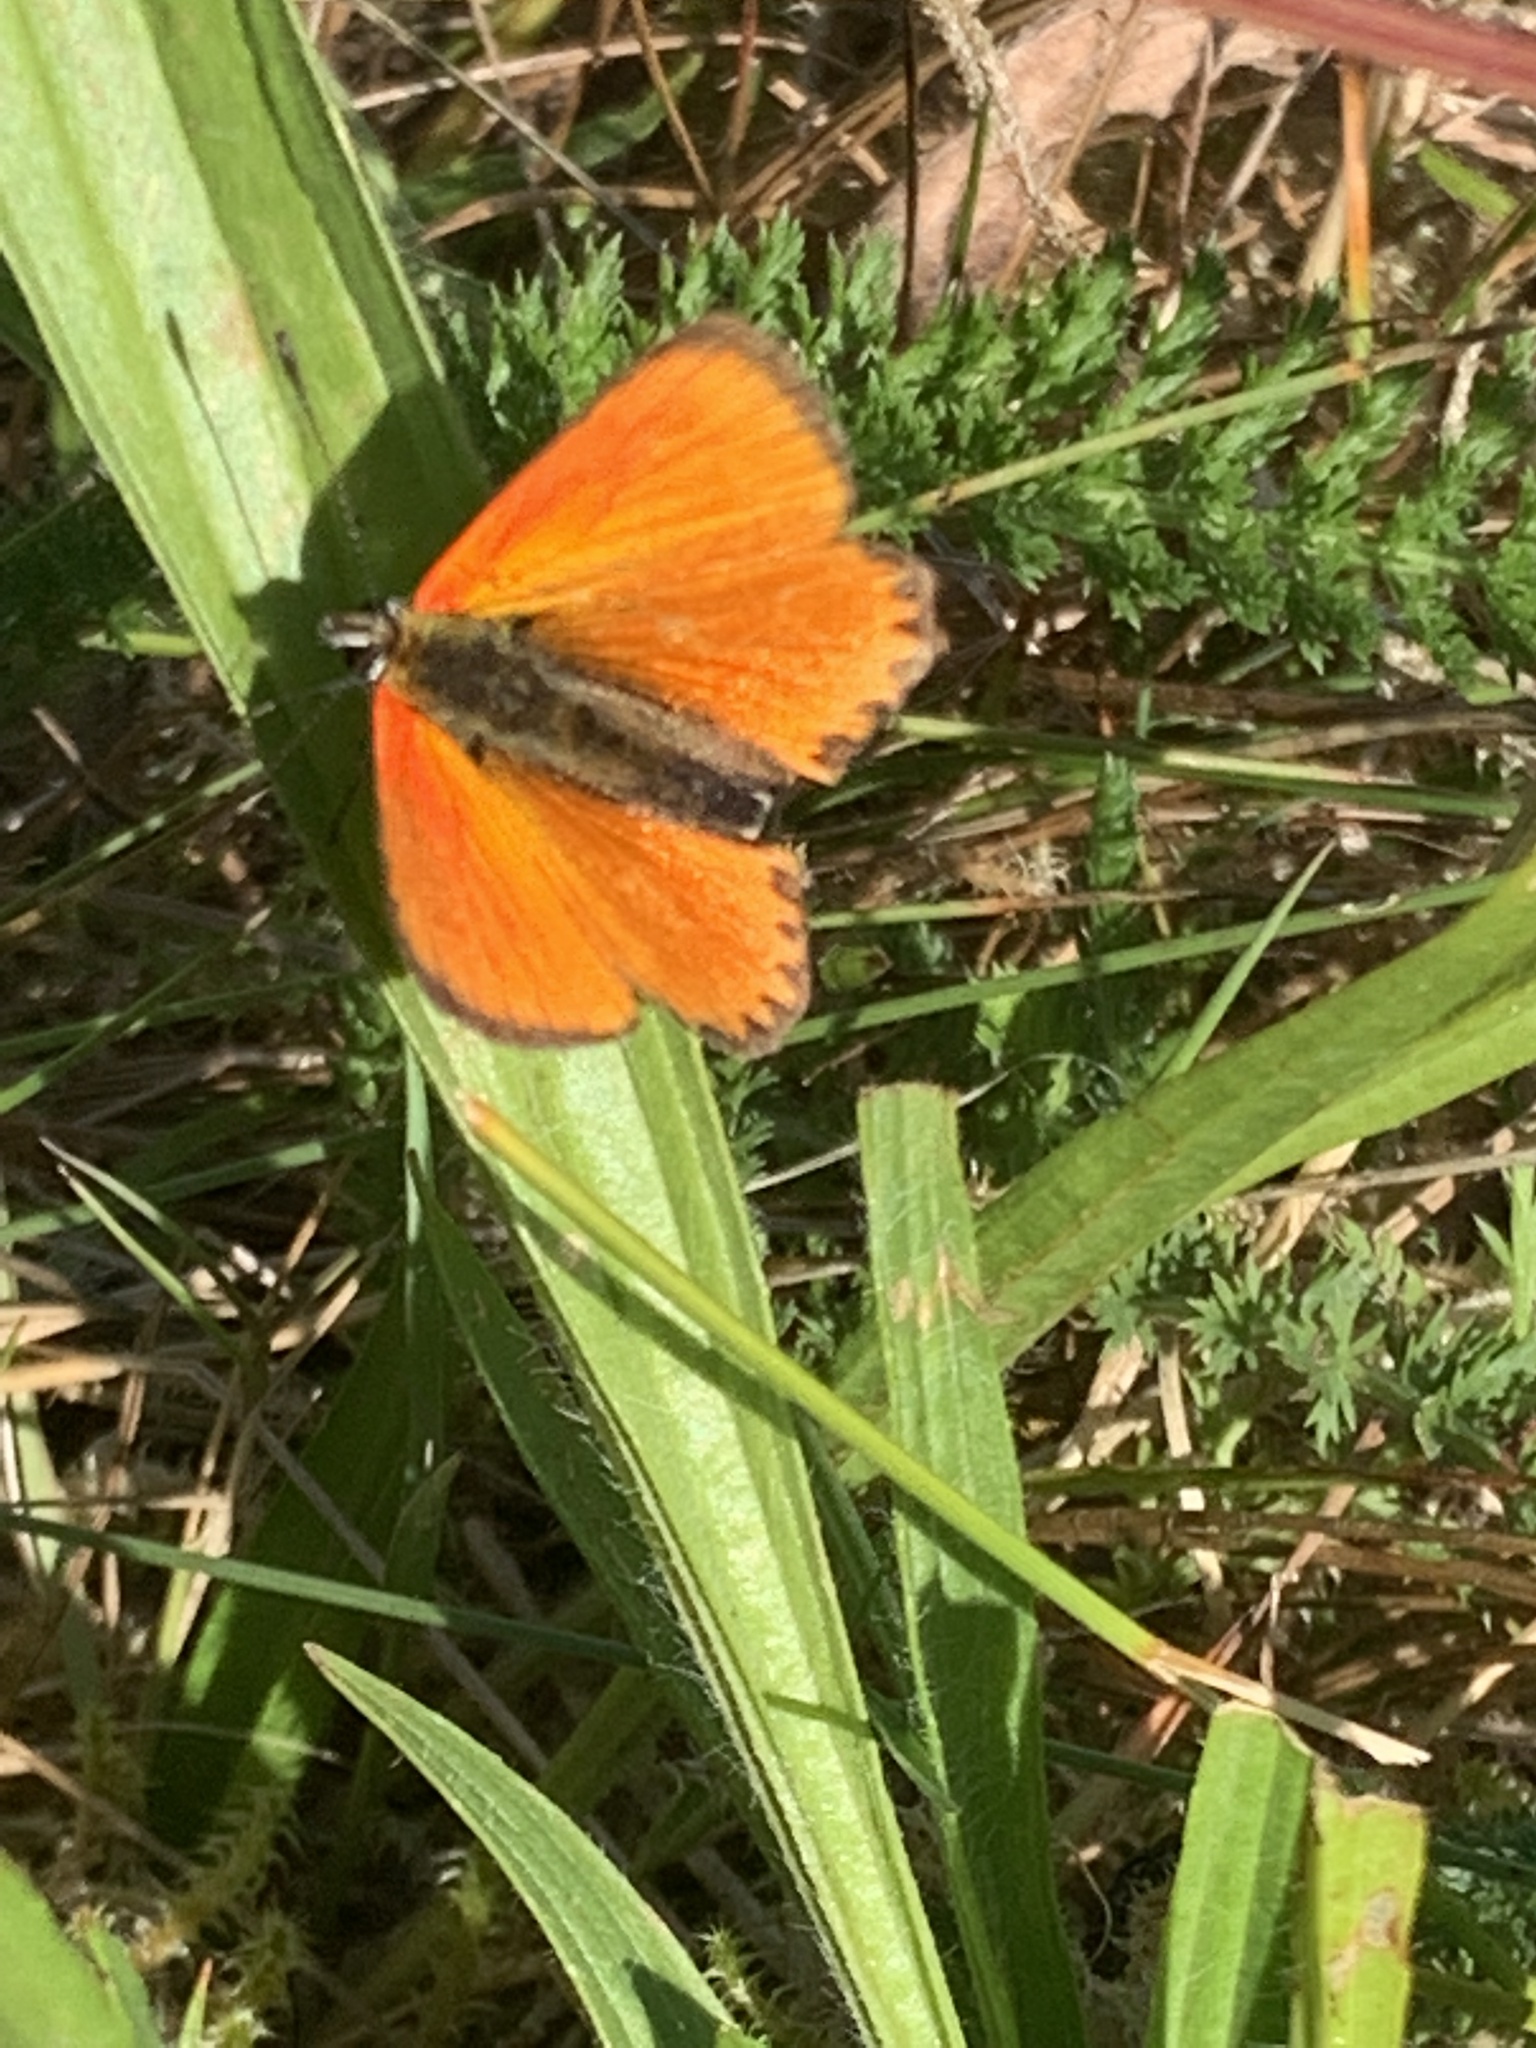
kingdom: Animalia
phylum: Arthropoda
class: Insecta
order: Lepidoptera
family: Lycaenidae
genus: Lycaena
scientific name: Lycaena virgaureae
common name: Scarce copper
